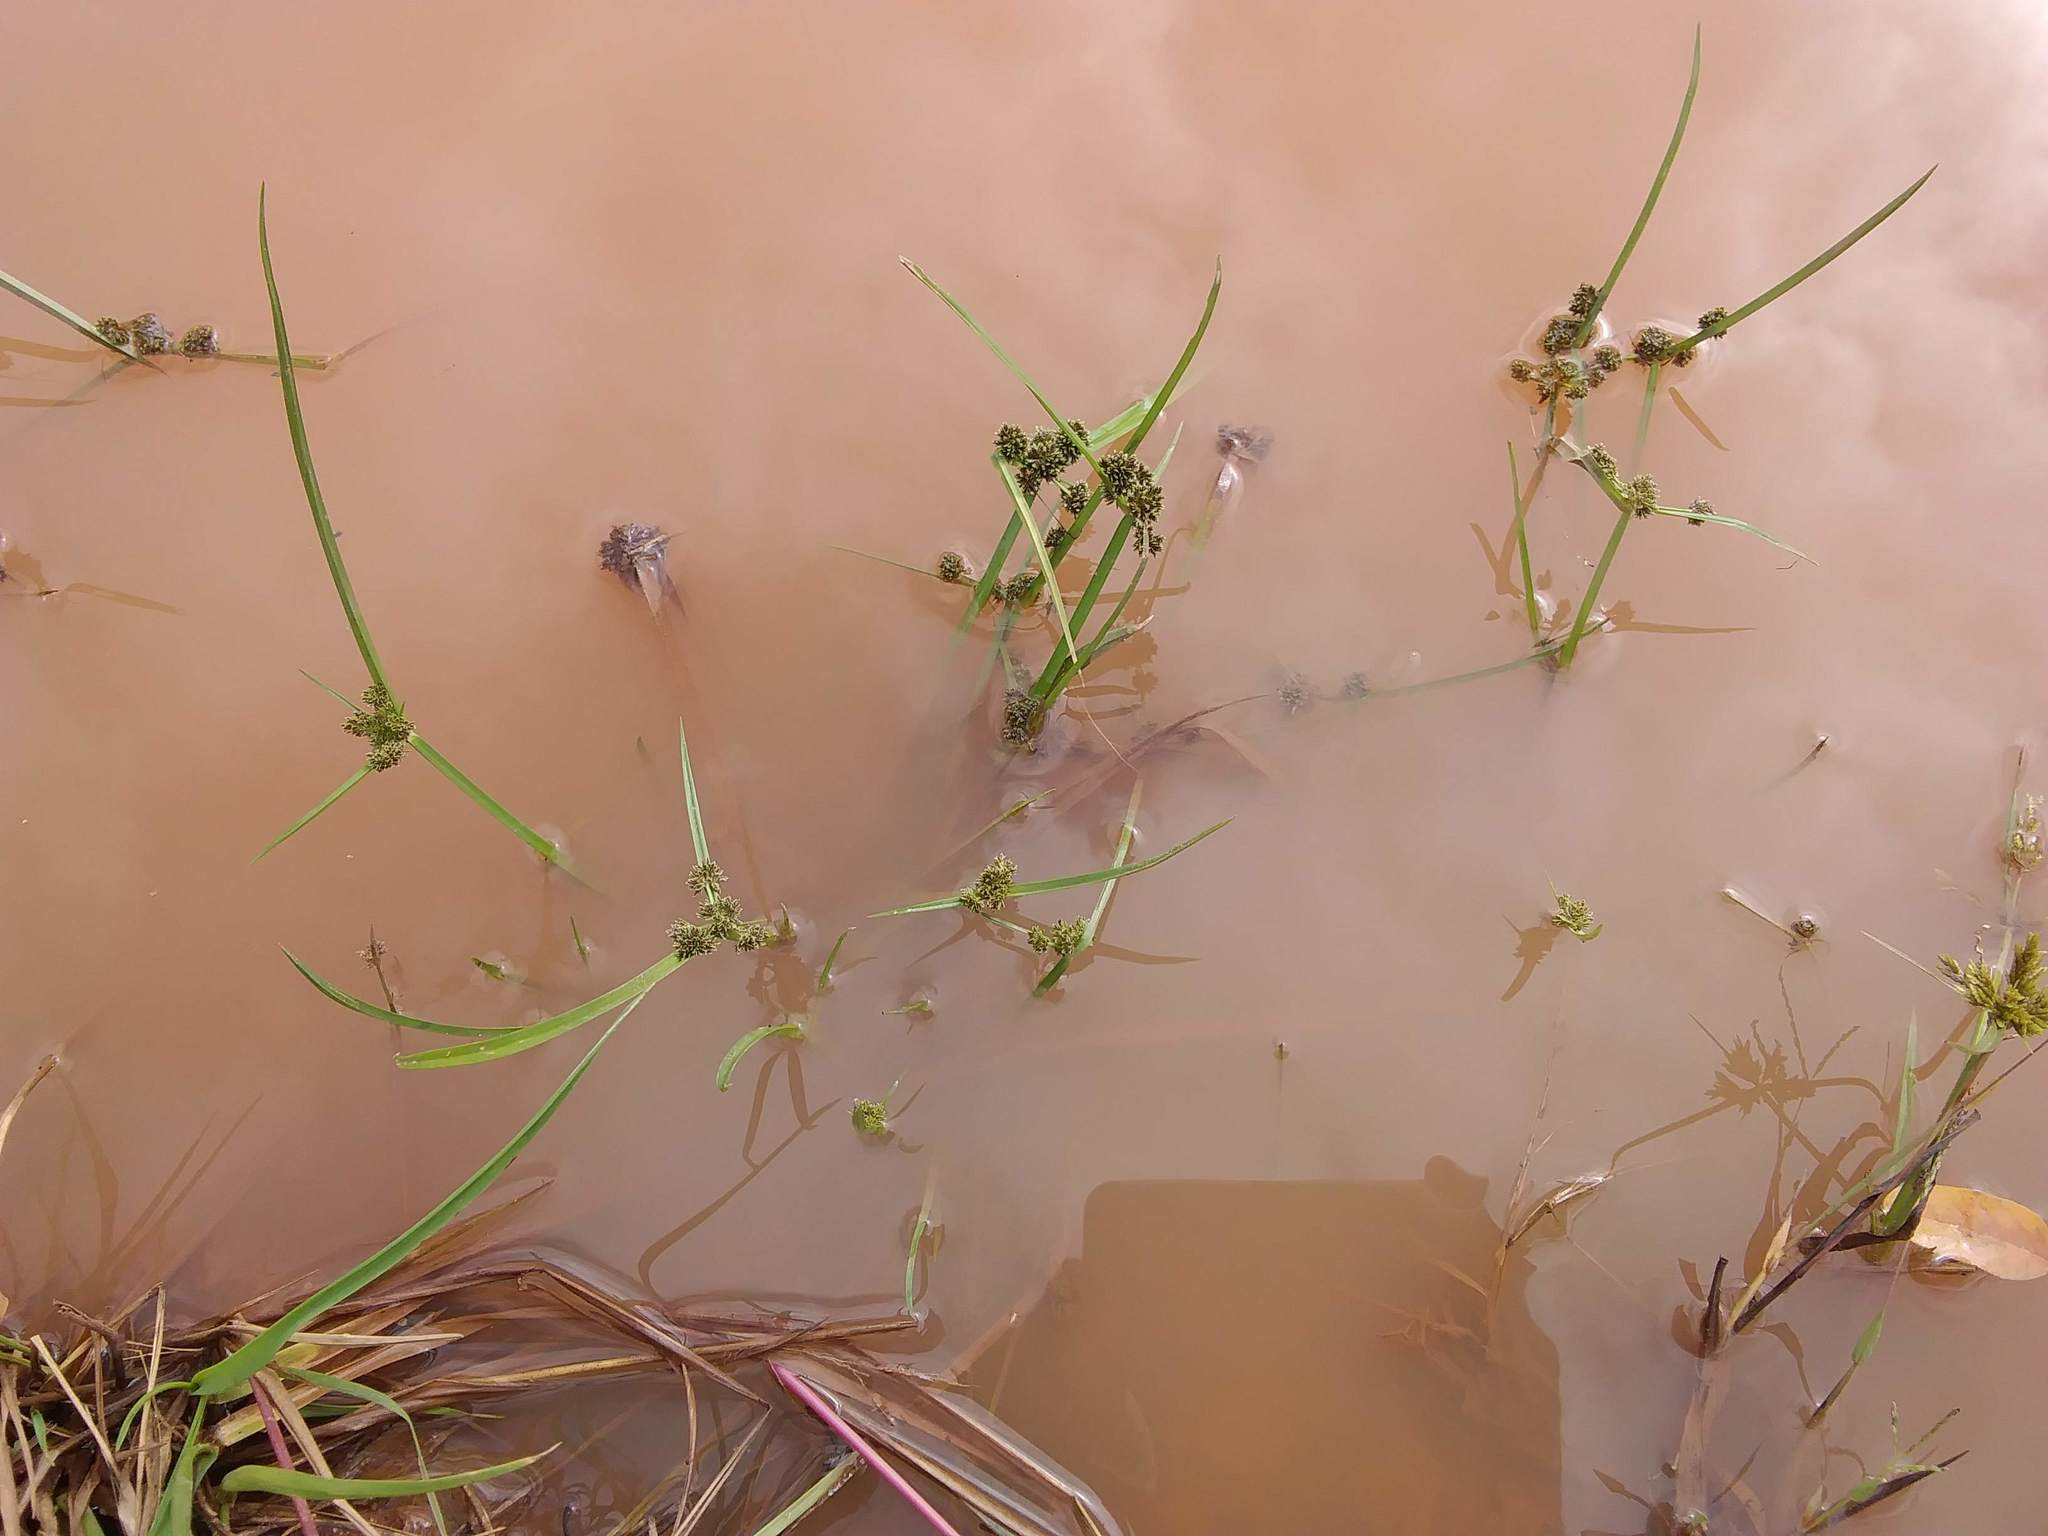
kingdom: Plantae
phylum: Tracheophyta
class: Liliopsida
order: Poales
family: Cyperaceae
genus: Cyperus
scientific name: Cyperus difformis
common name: Variable flatsedge
